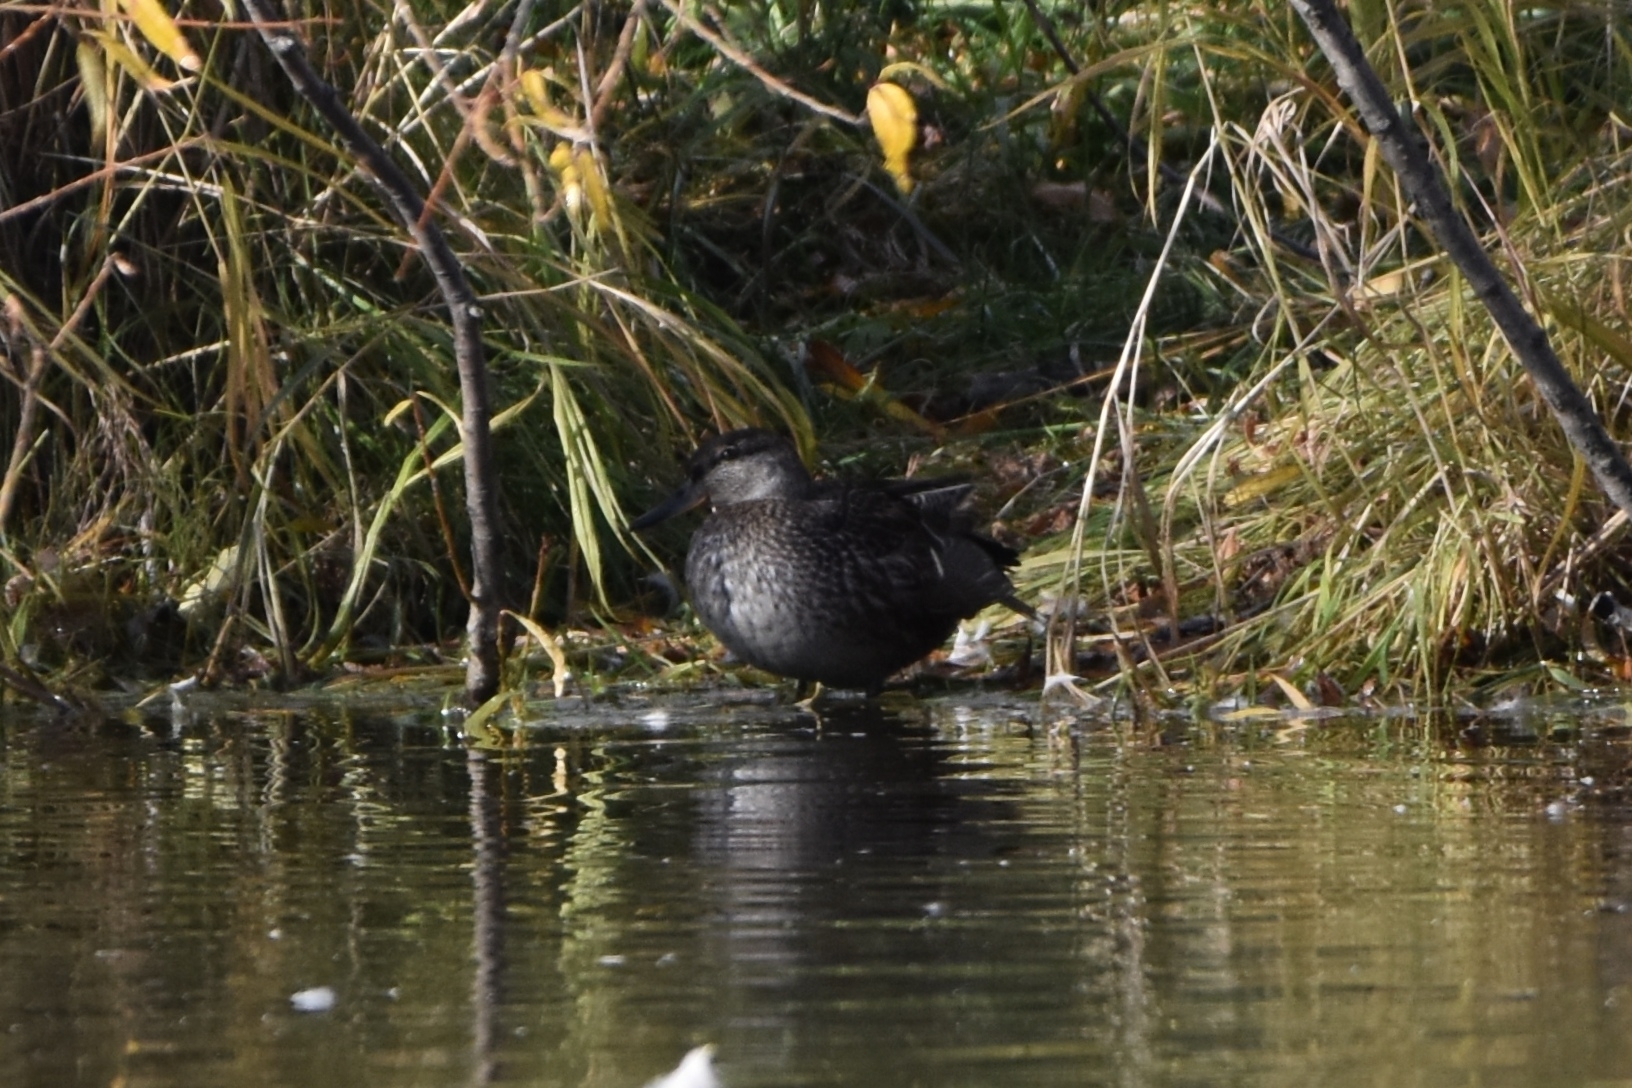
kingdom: Animalia
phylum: Chordata
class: Aves
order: Anseriformes
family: Anatidae
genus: Anas
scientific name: Anas crecca
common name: Eurasian teal
